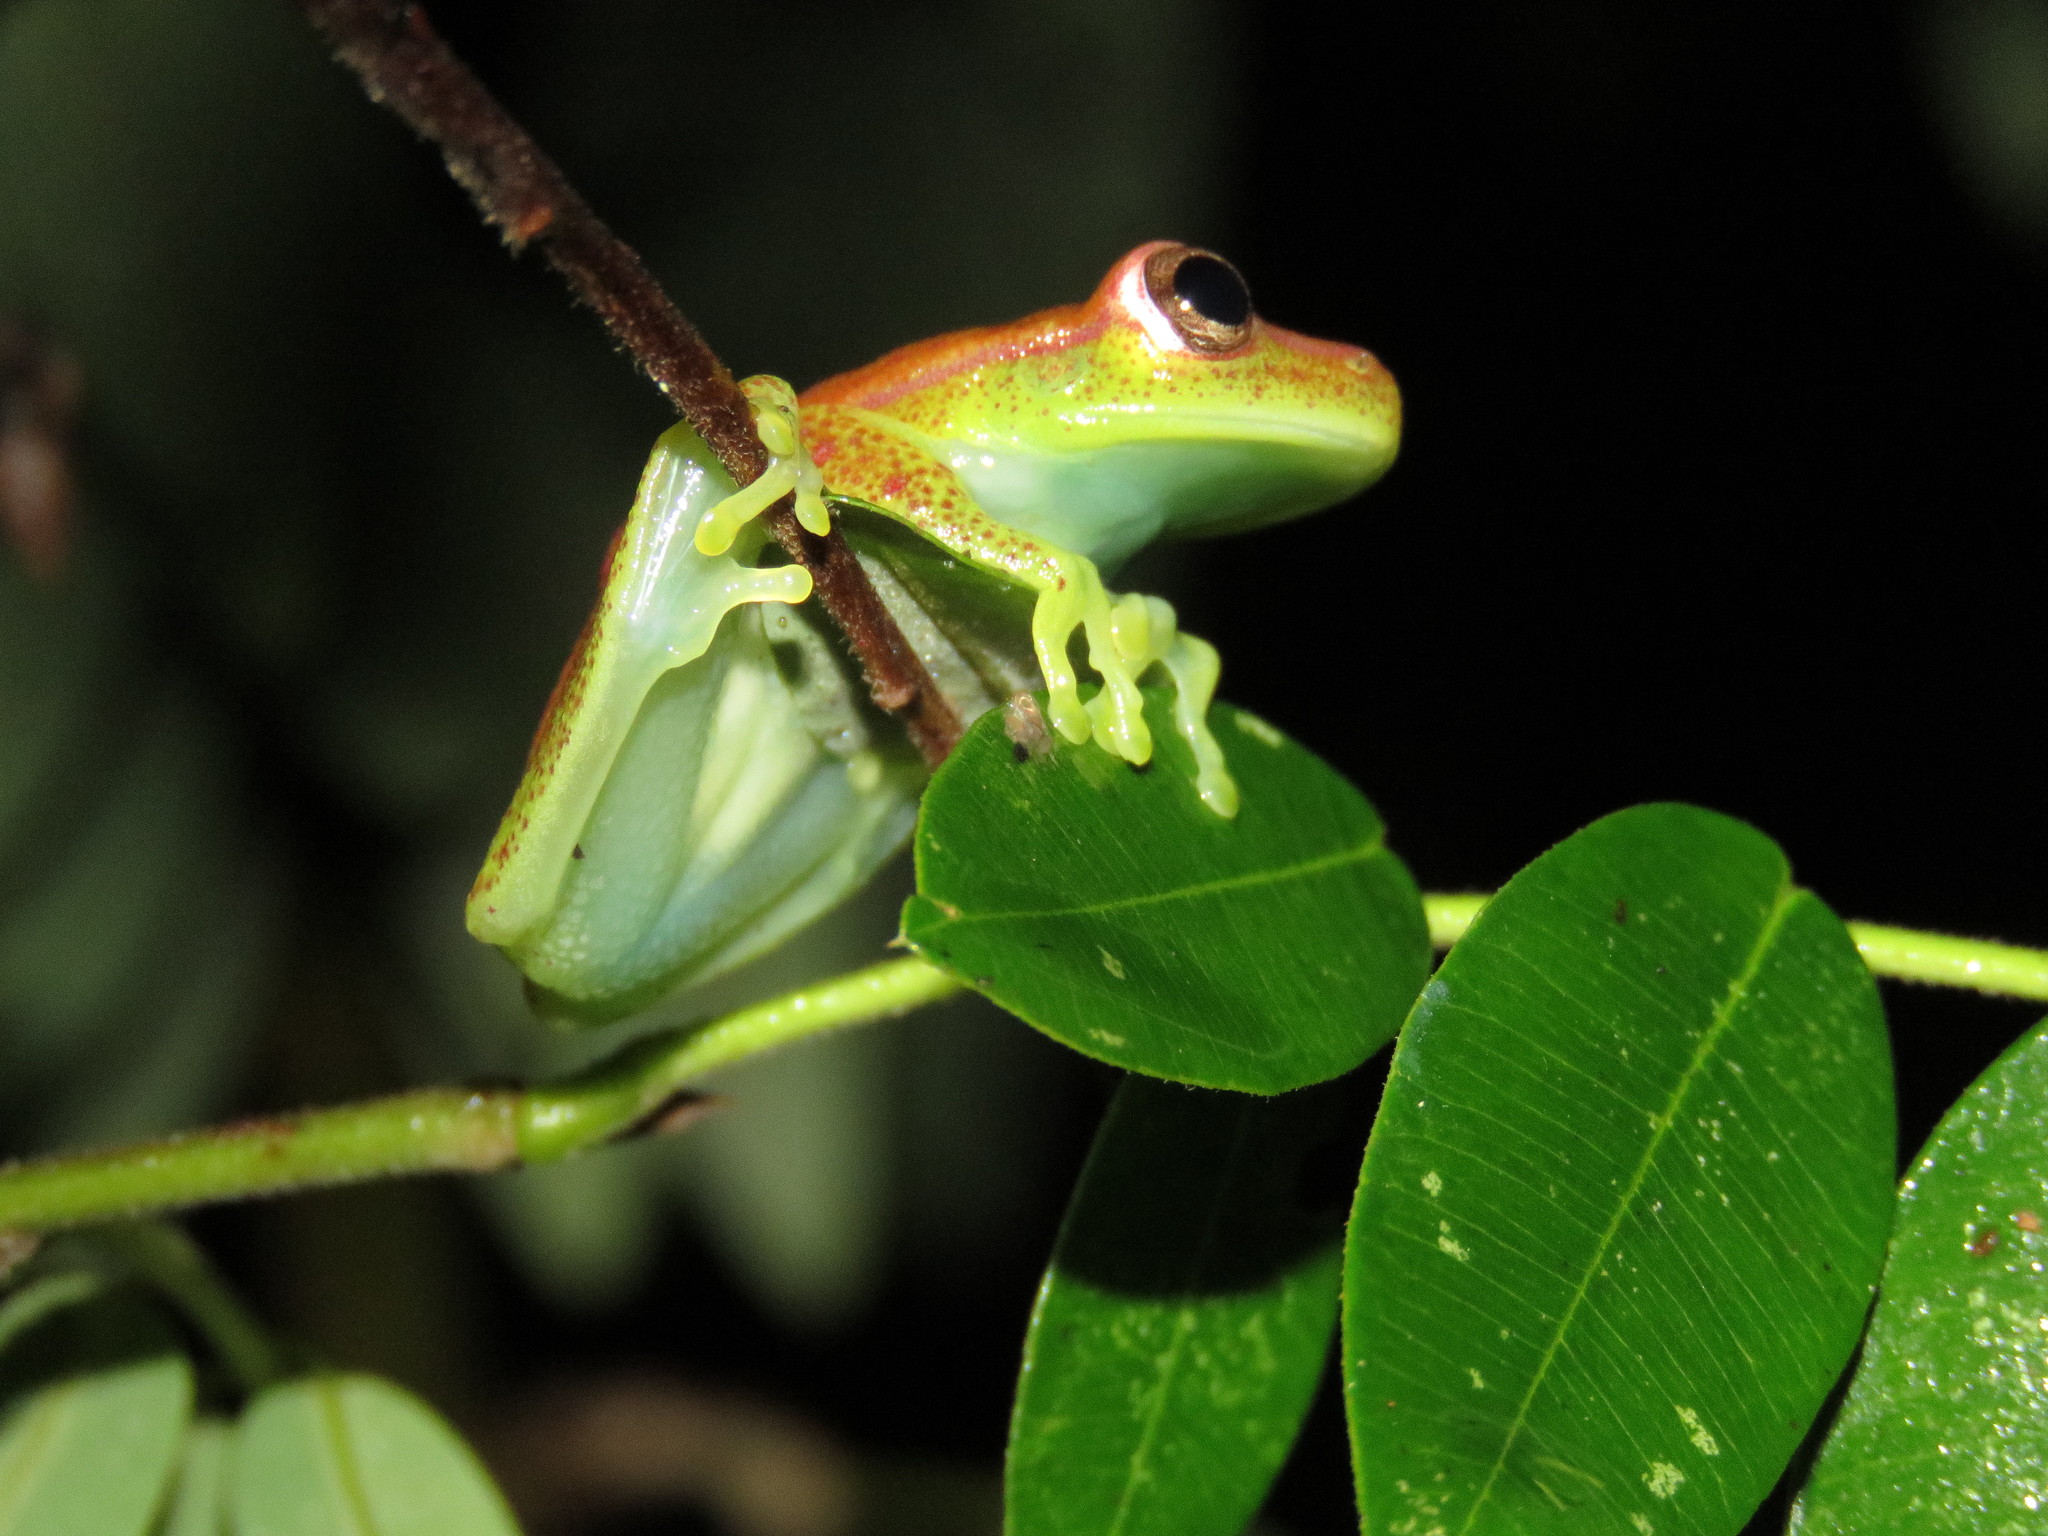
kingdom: Animalia
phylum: Chordata
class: Amphibia
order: Anura
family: Hylidae
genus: Boana
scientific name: Boana punctata
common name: Polka-dot treefrog
